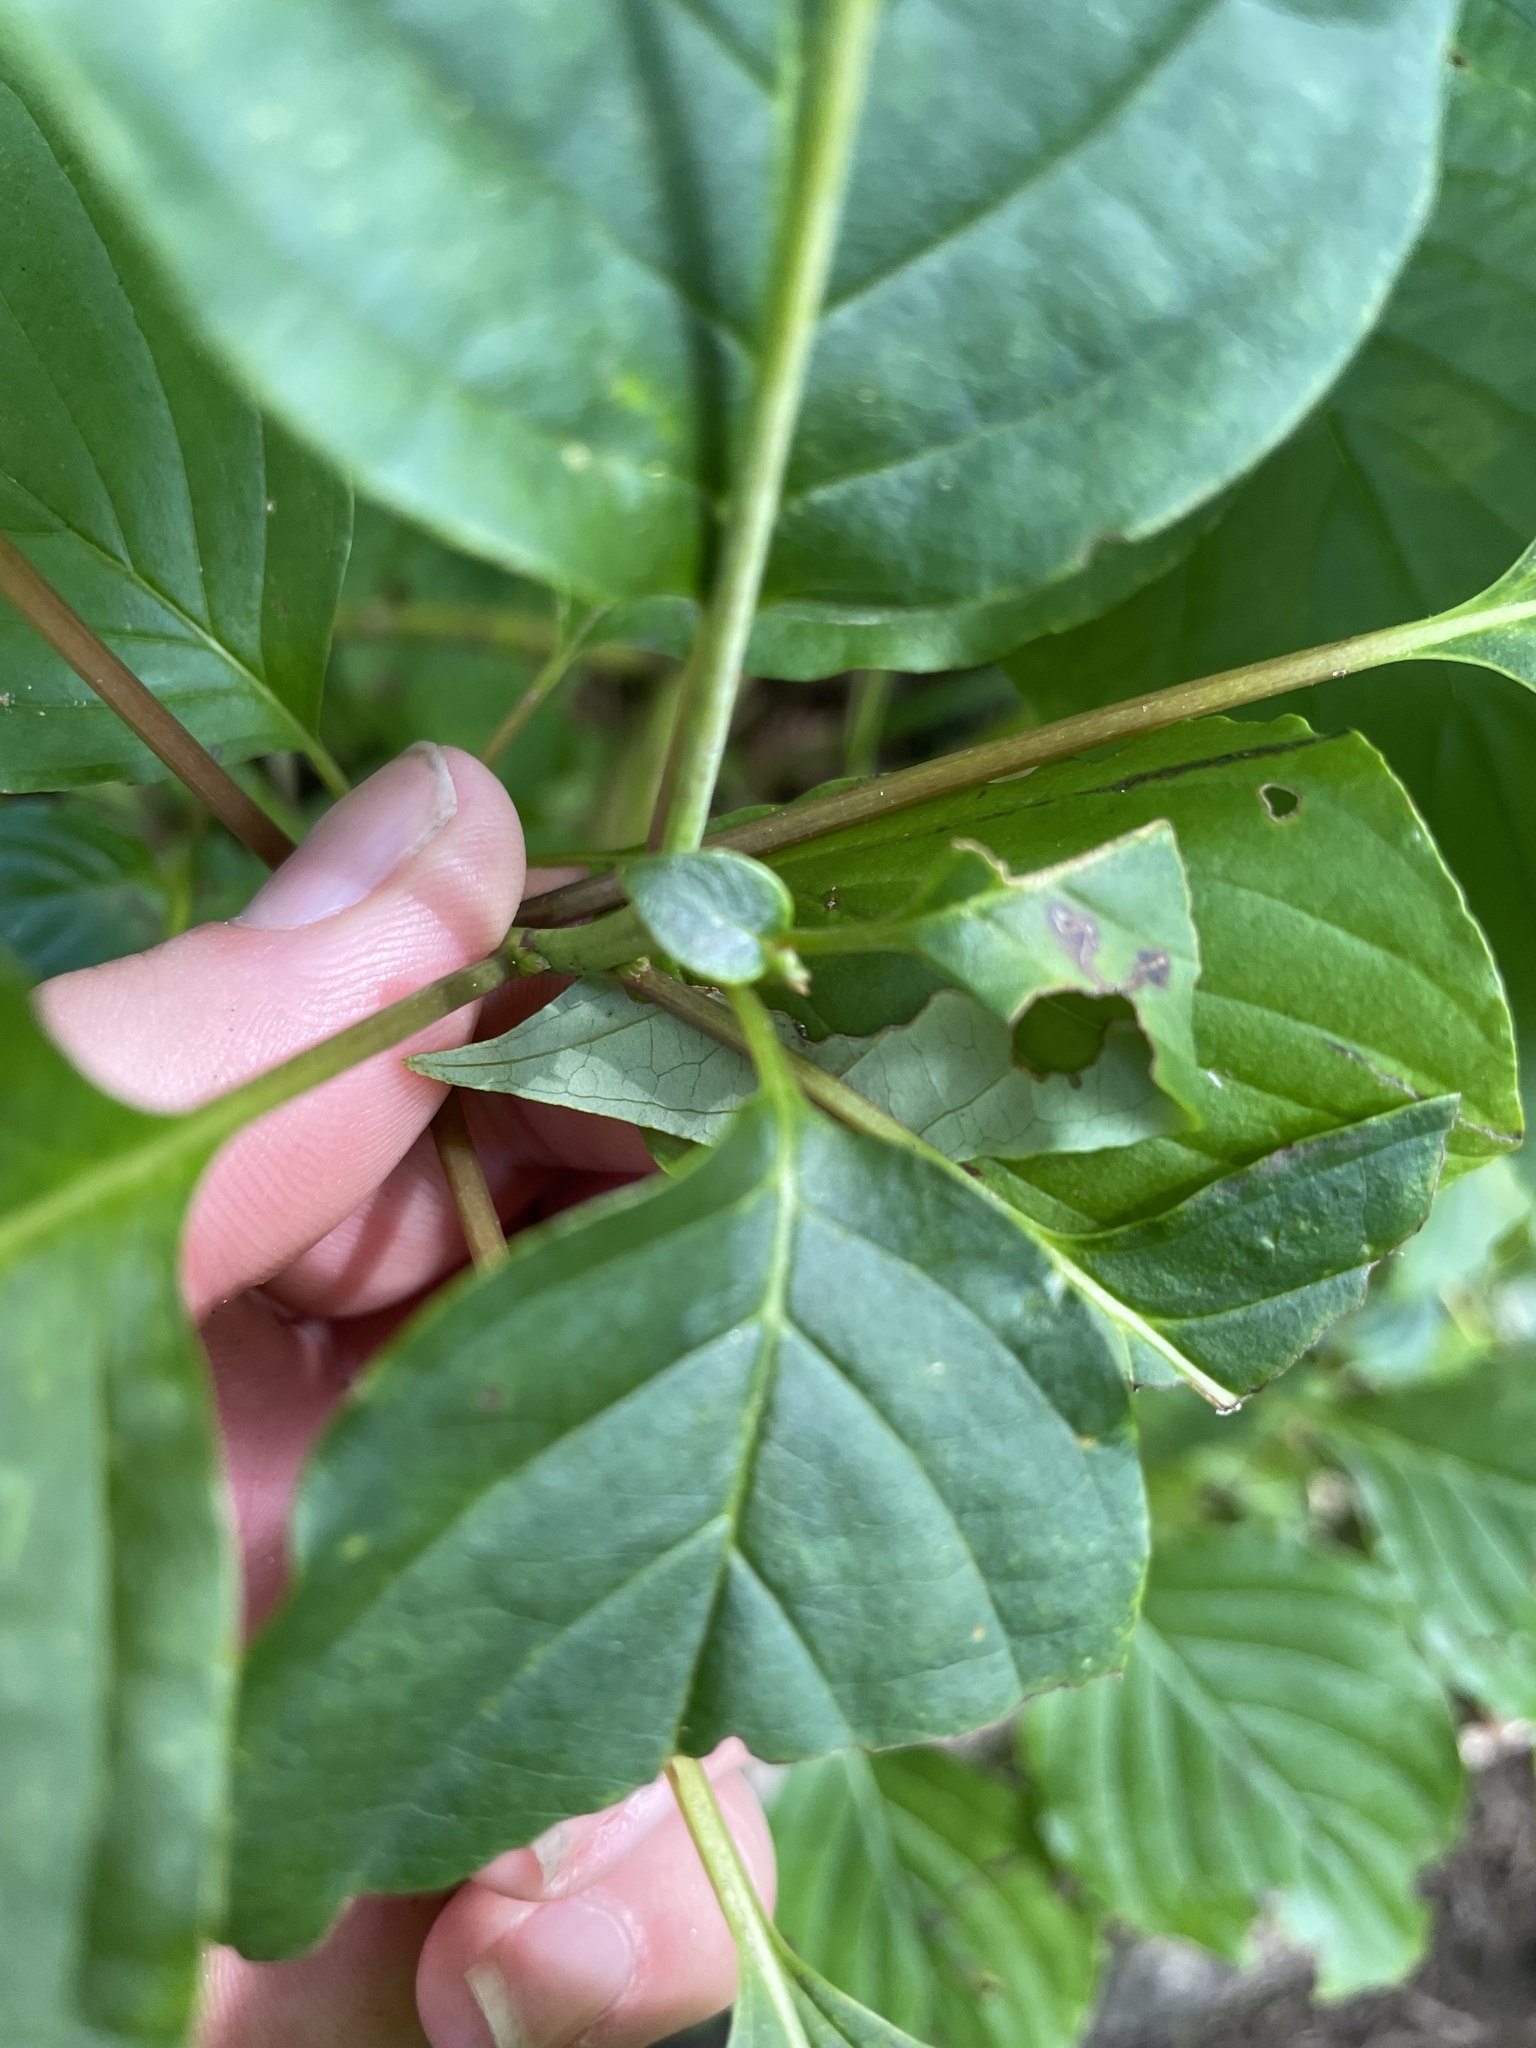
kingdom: Plantae
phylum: Tracheophyta
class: Magnoliopsida
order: Cornales
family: Cornaceae
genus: Cornus
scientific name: Cornus alternifolia
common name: Pagoda dogwood
